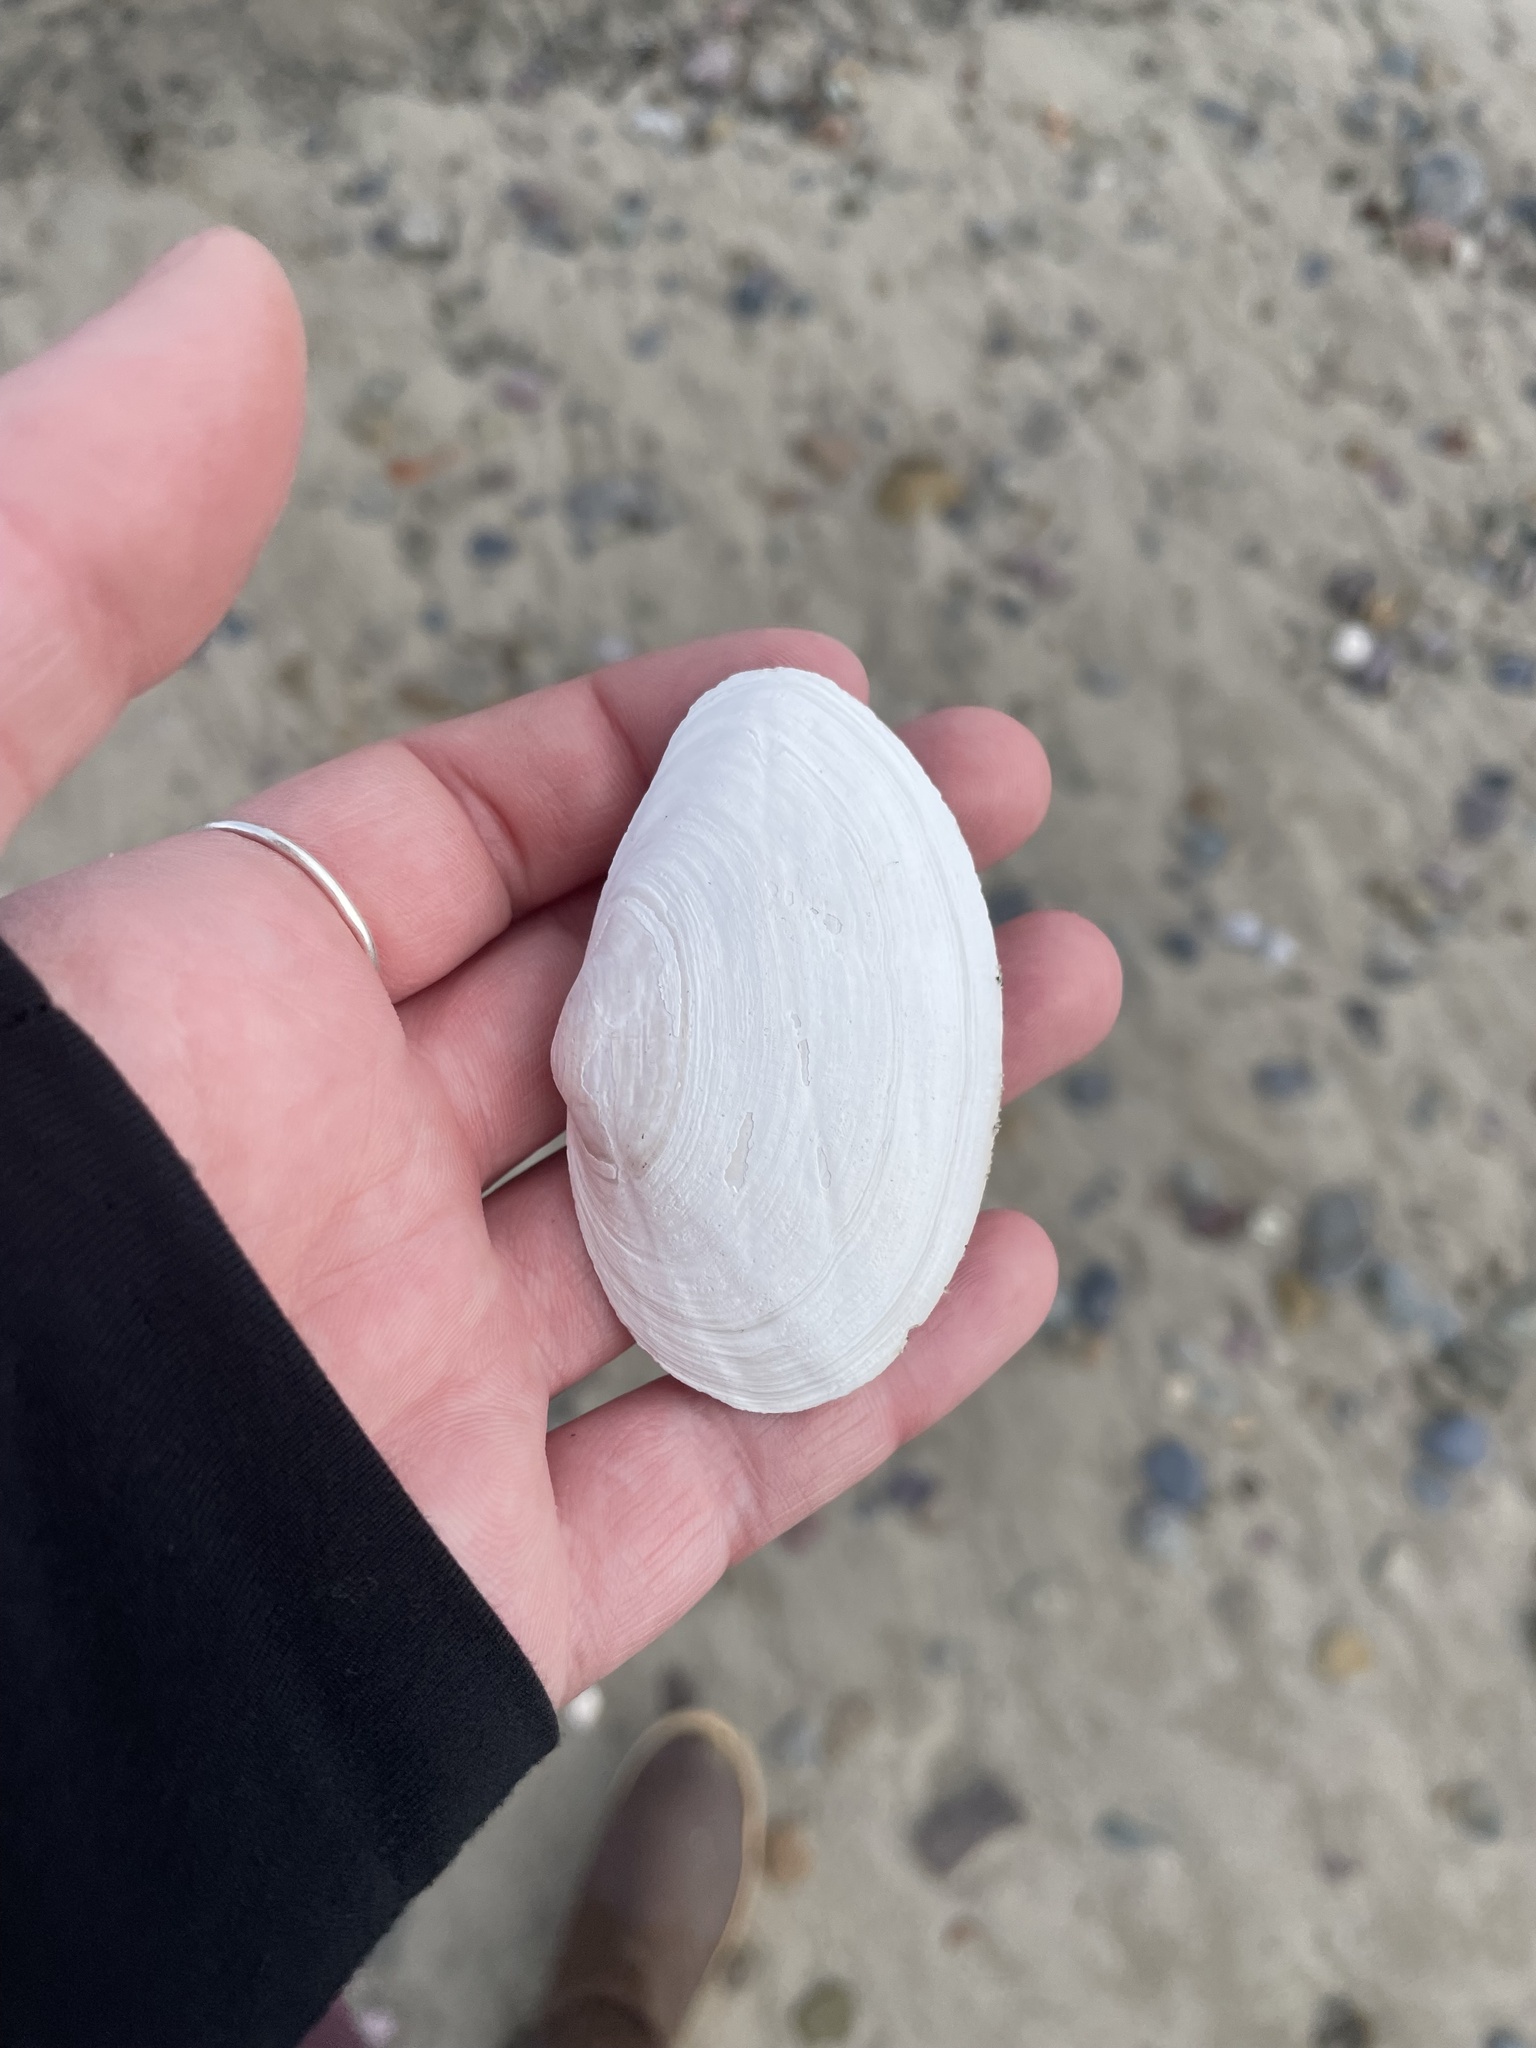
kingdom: Animalia
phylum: Mollusca
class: Bivalvia
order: Myida
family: Myidae
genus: Mya
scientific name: Mya arenaria
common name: Soft-shelled clam
